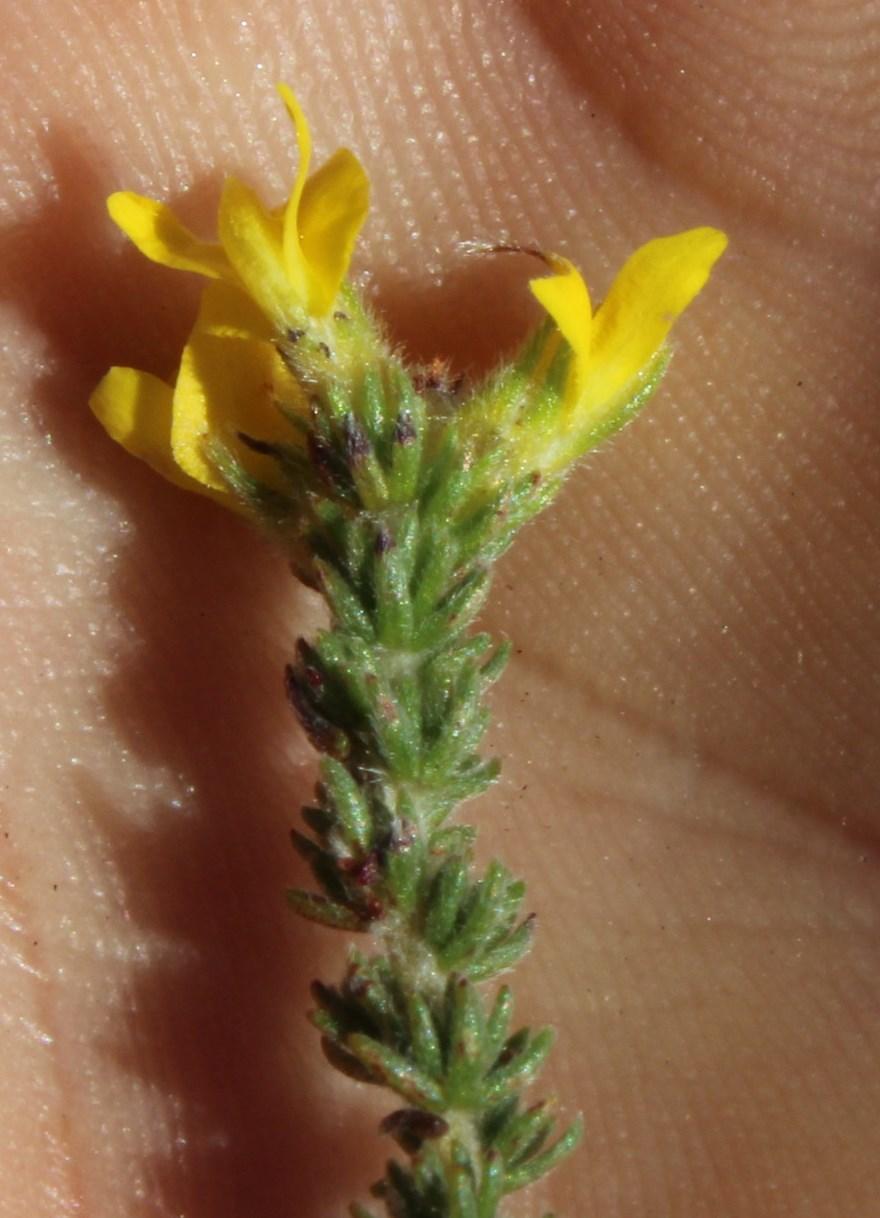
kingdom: Plantae
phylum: Tracheophyta
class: Magnoliopsida
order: Fabales
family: Fabaceae
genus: Aspalathus
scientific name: Aspalathus ericifolia
